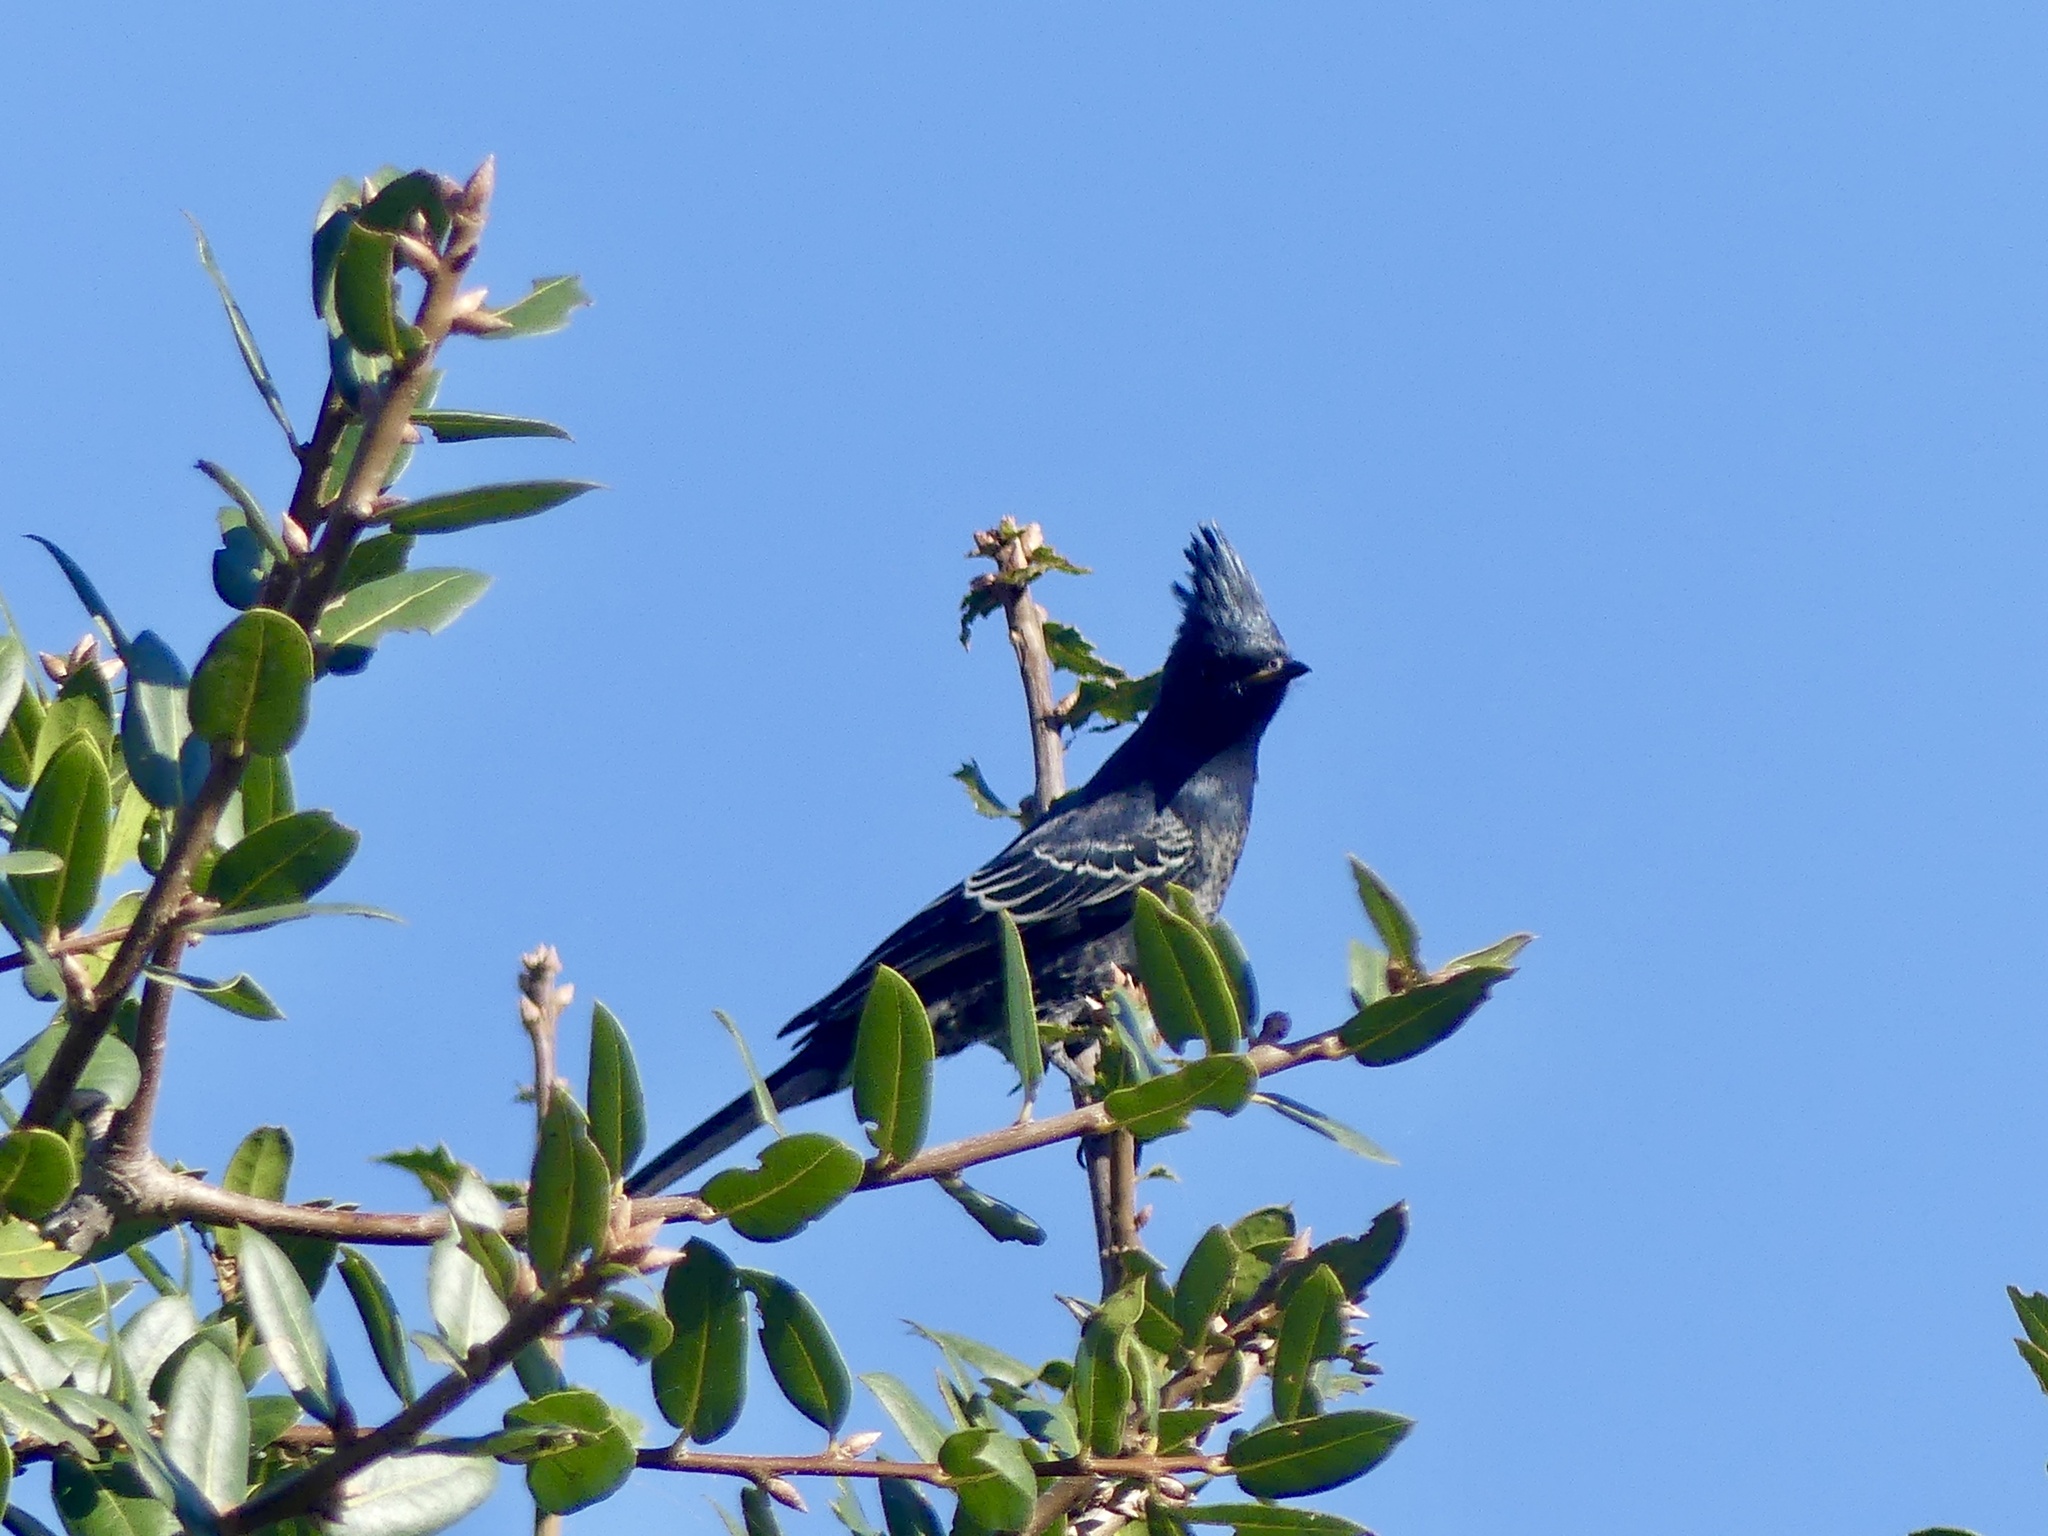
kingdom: Animalia
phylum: Chordata
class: Aves
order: Passeriformes
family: Ptilogonatidae
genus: Phainopepla
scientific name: Phainopepla nitens
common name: Phainopepla
